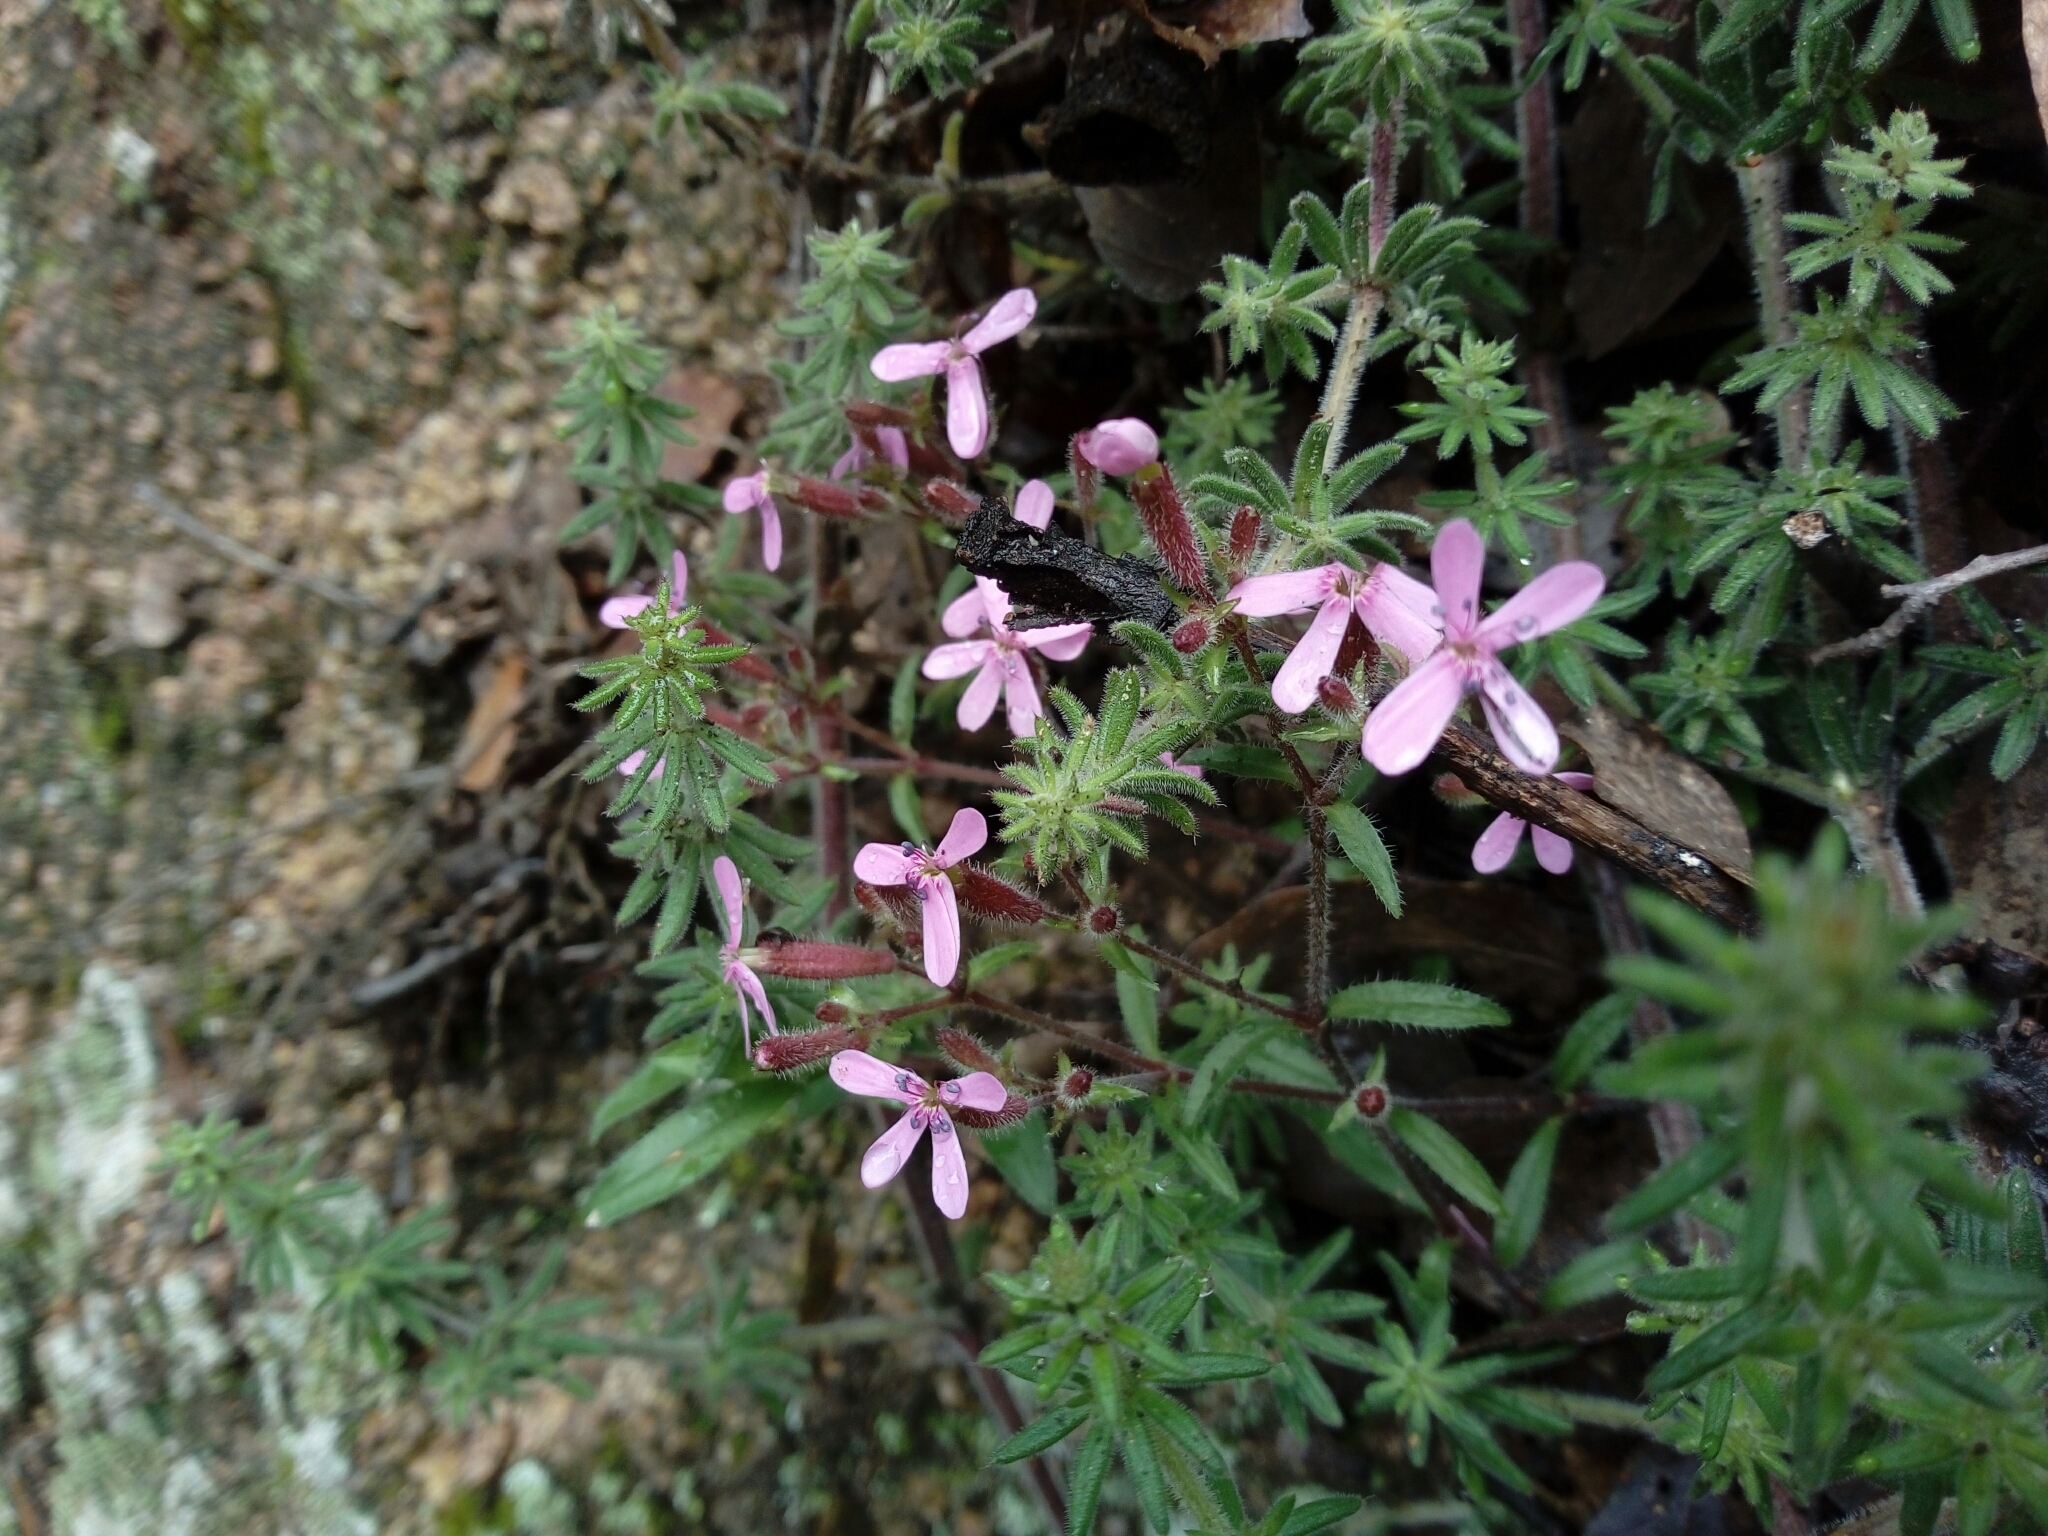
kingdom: Plantae
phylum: Tracheophyta
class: Magnoliopsida
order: Caryophyllales
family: Caryophyllaceae
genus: Saponaria
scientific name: Saponaria ocymoides
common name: Rock soapwort
